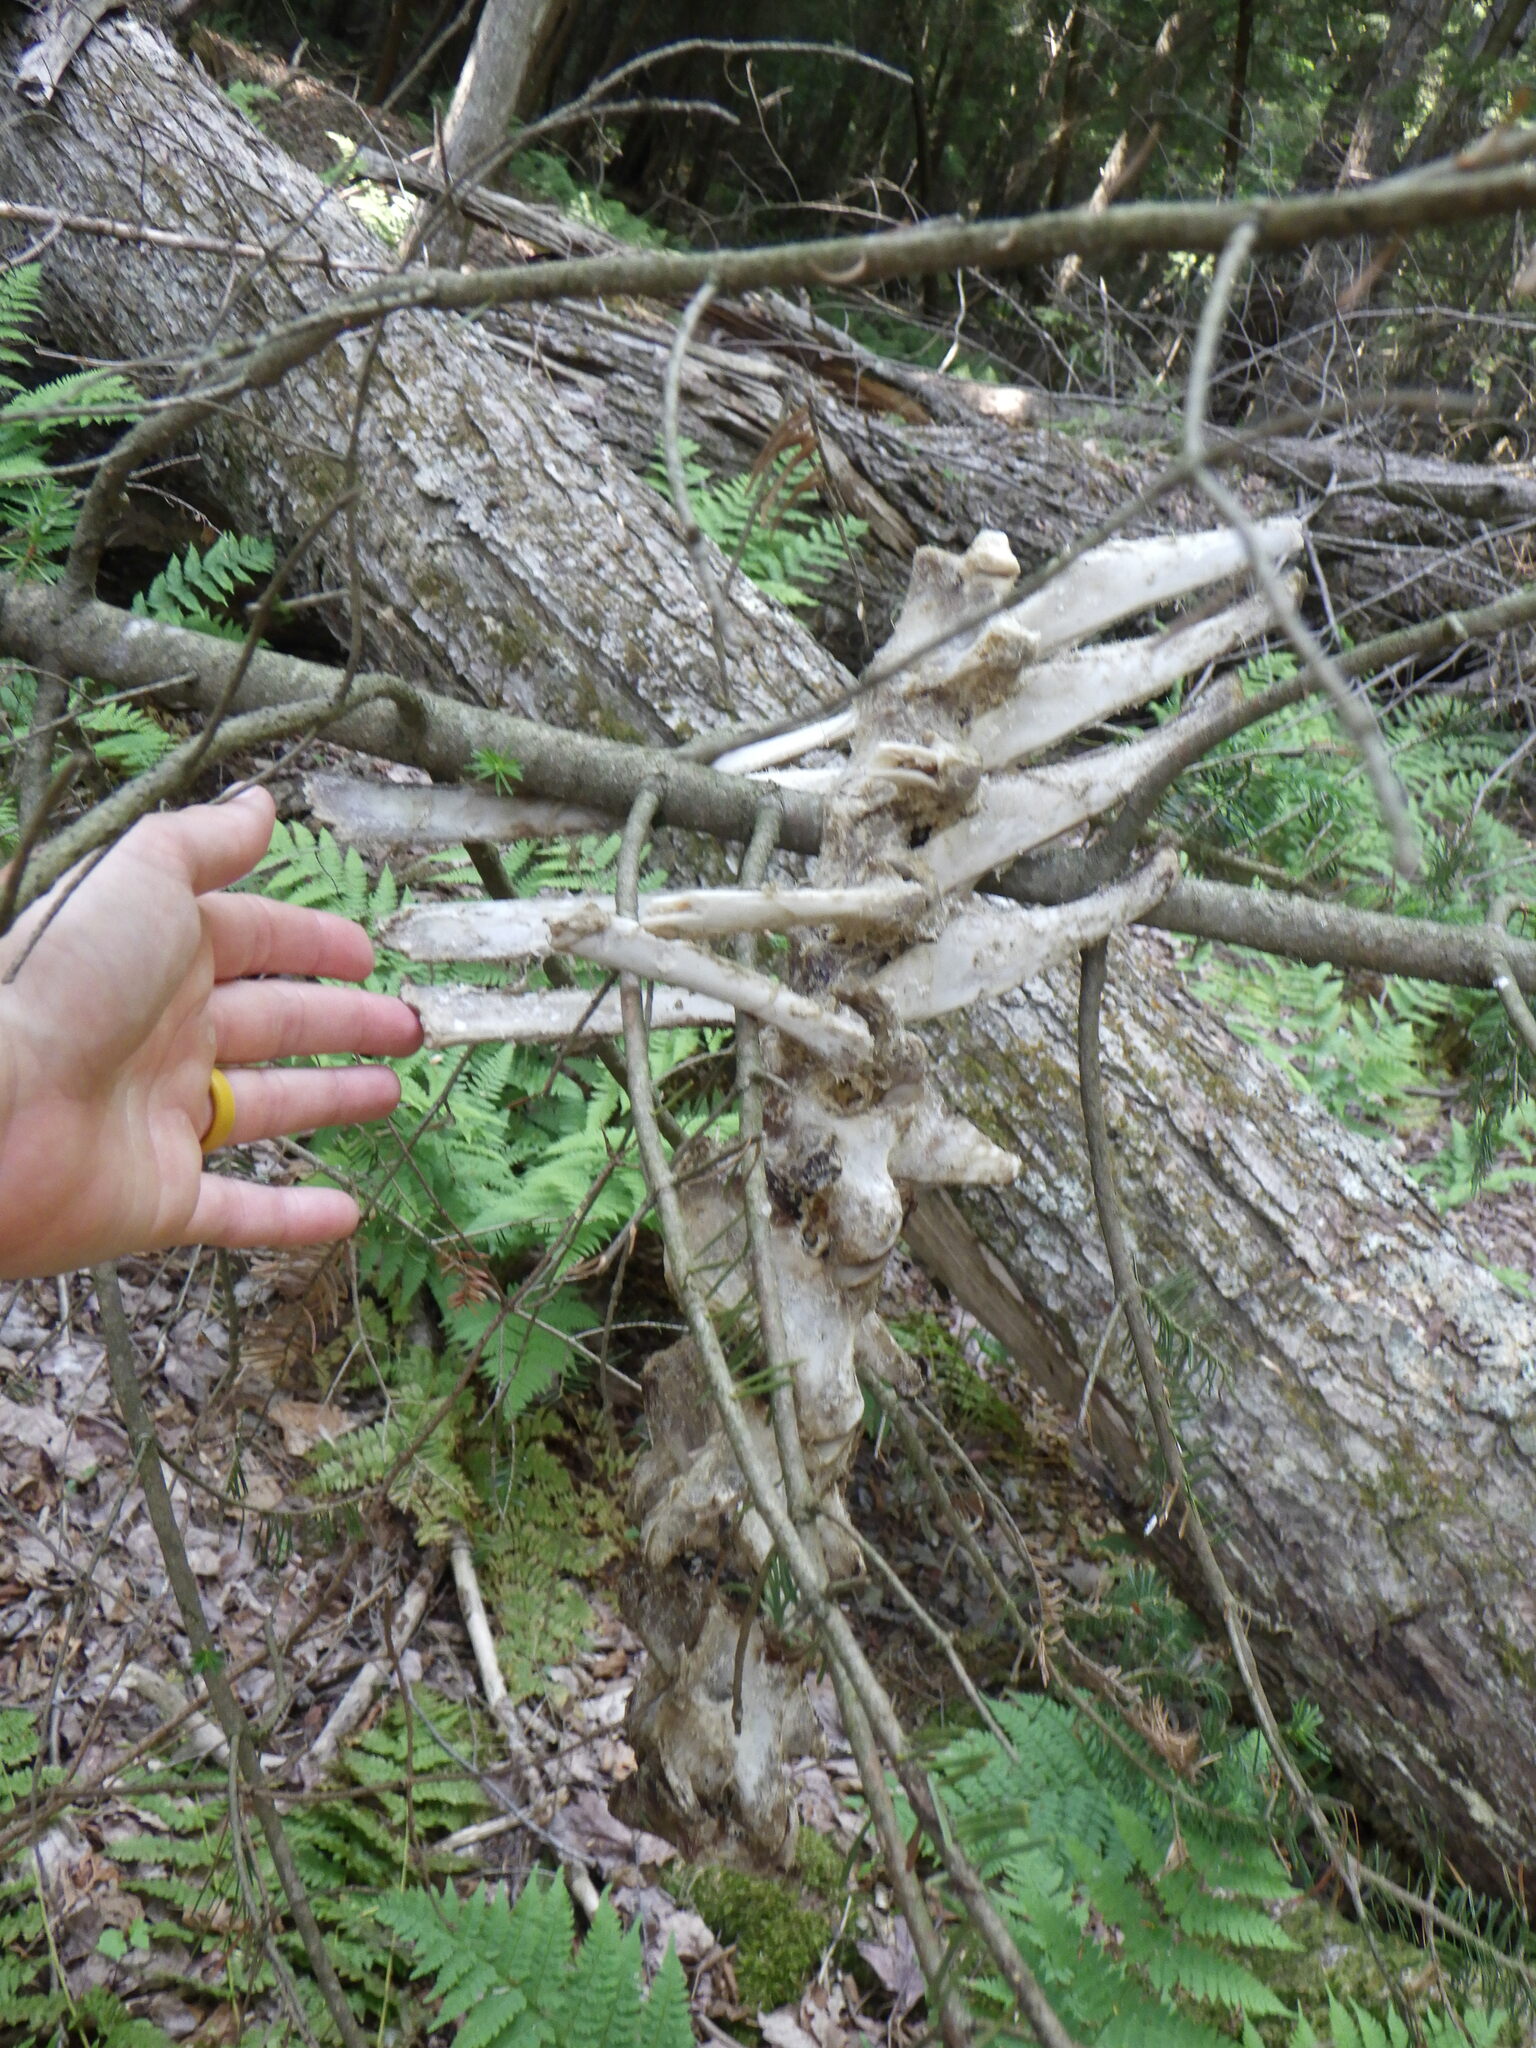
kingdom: Animalia
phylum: Chordata
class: Mammalia
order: Artiodactyla
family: Cervidae
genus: Odocoileus
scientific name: Odocoileus virginianus
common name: White-tailed deer
